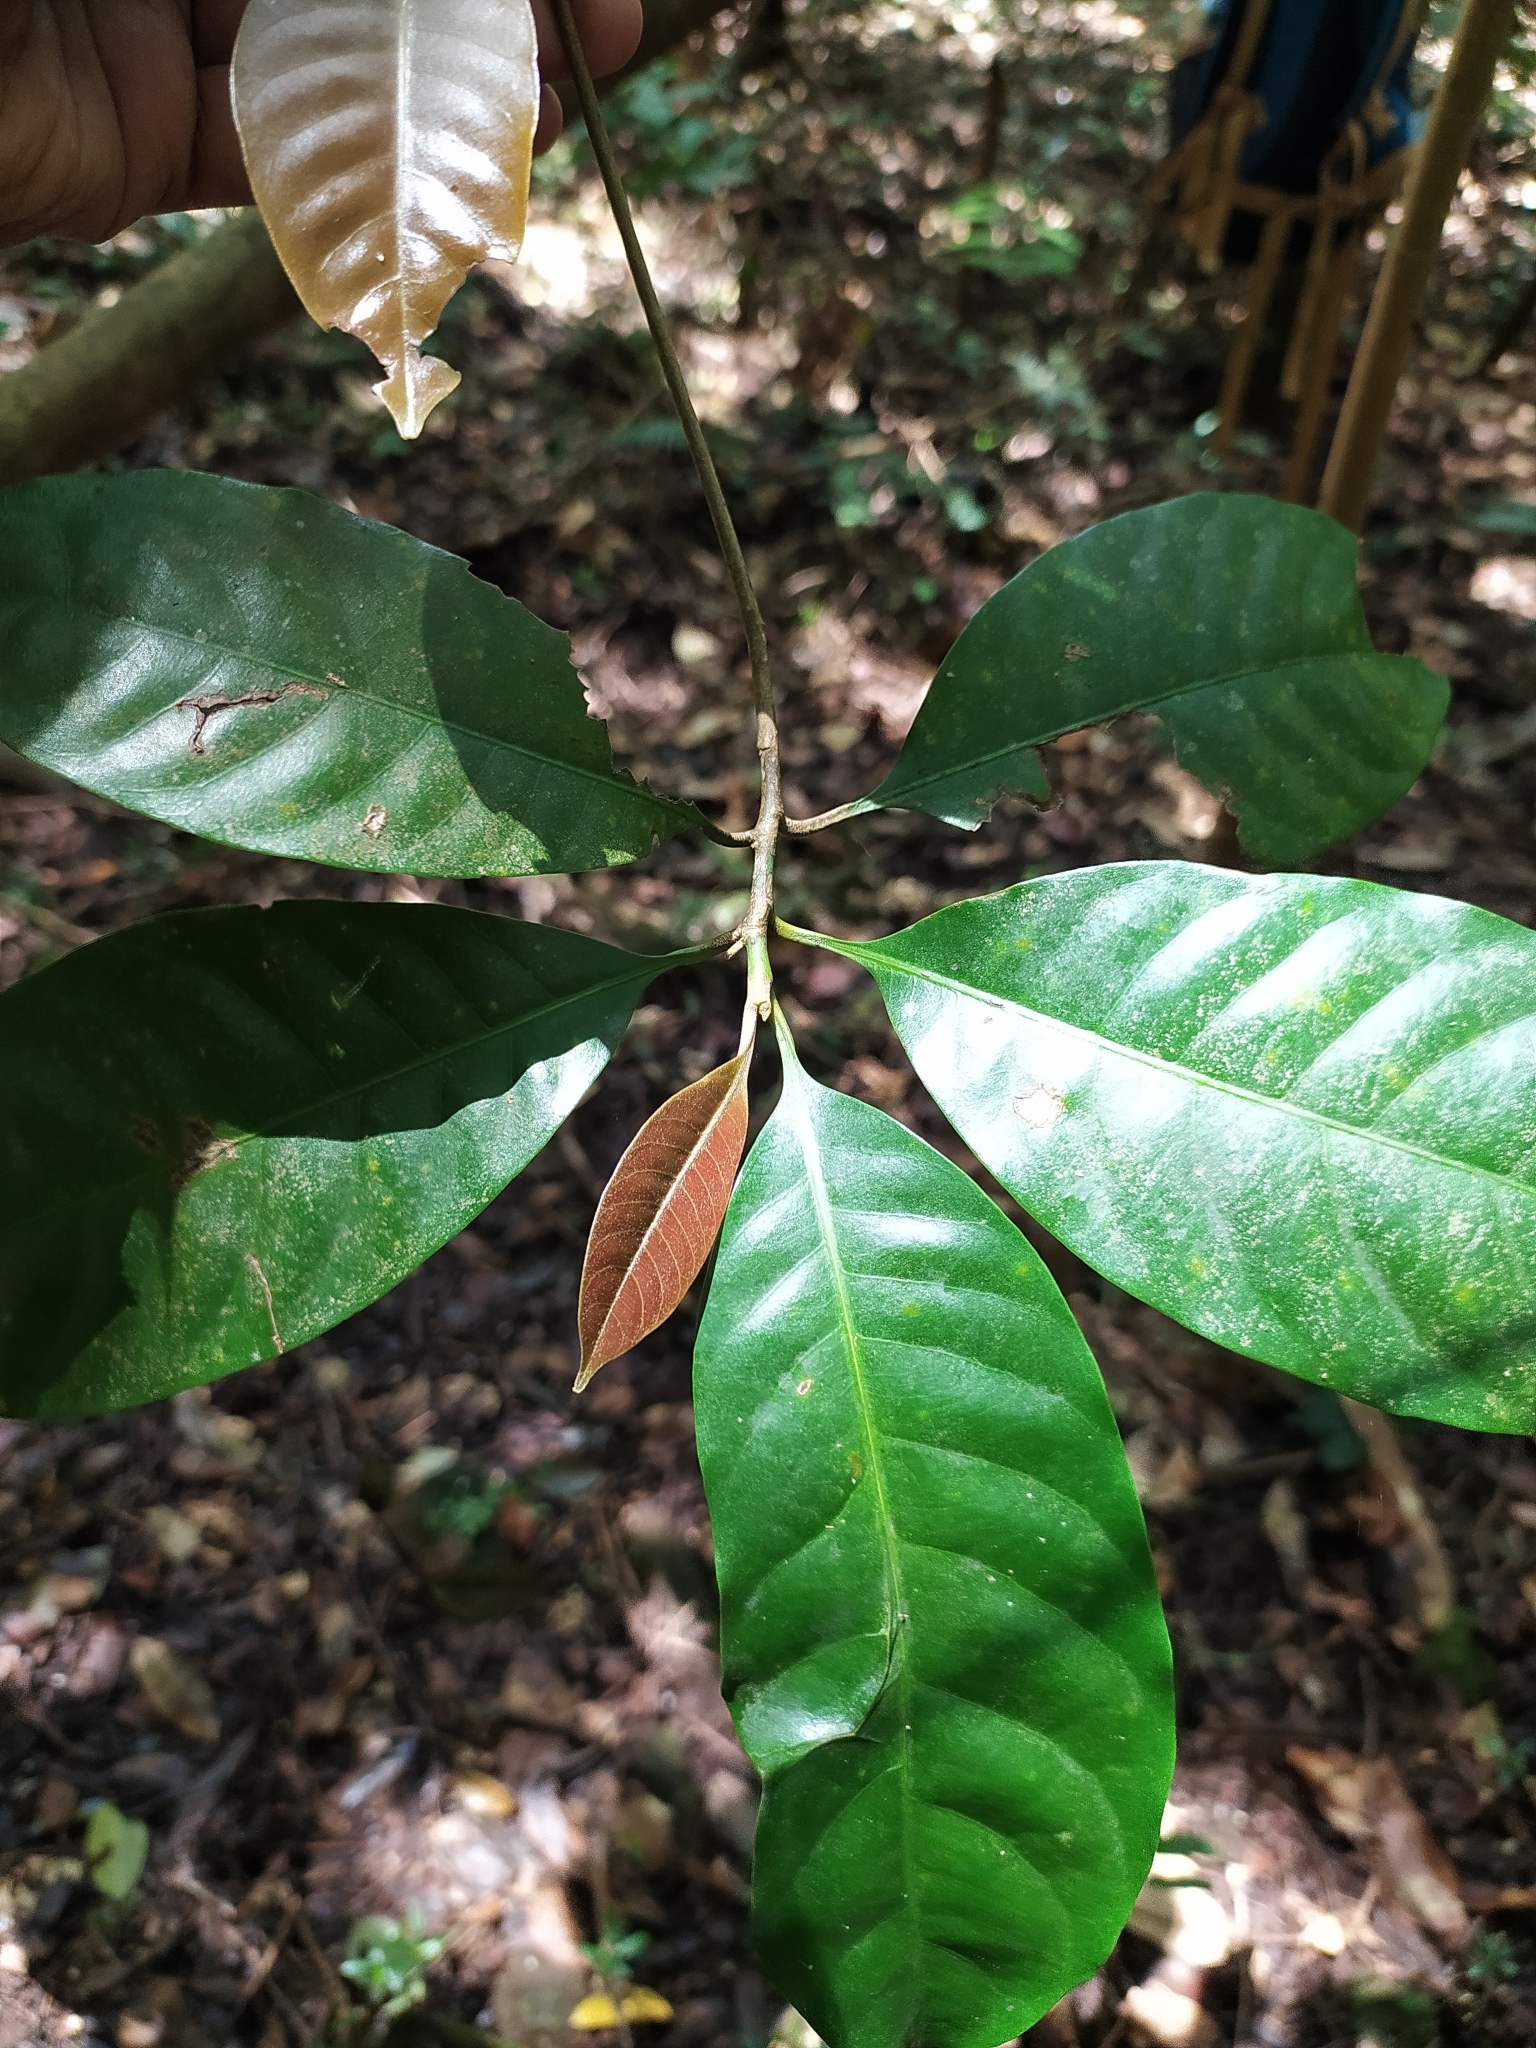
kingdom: Plantae
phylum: Tracheophyta
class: Magnoliopsida
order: Ericales
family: Sapotaceae
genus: Palaquium
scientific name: Palaquium ellipticum
